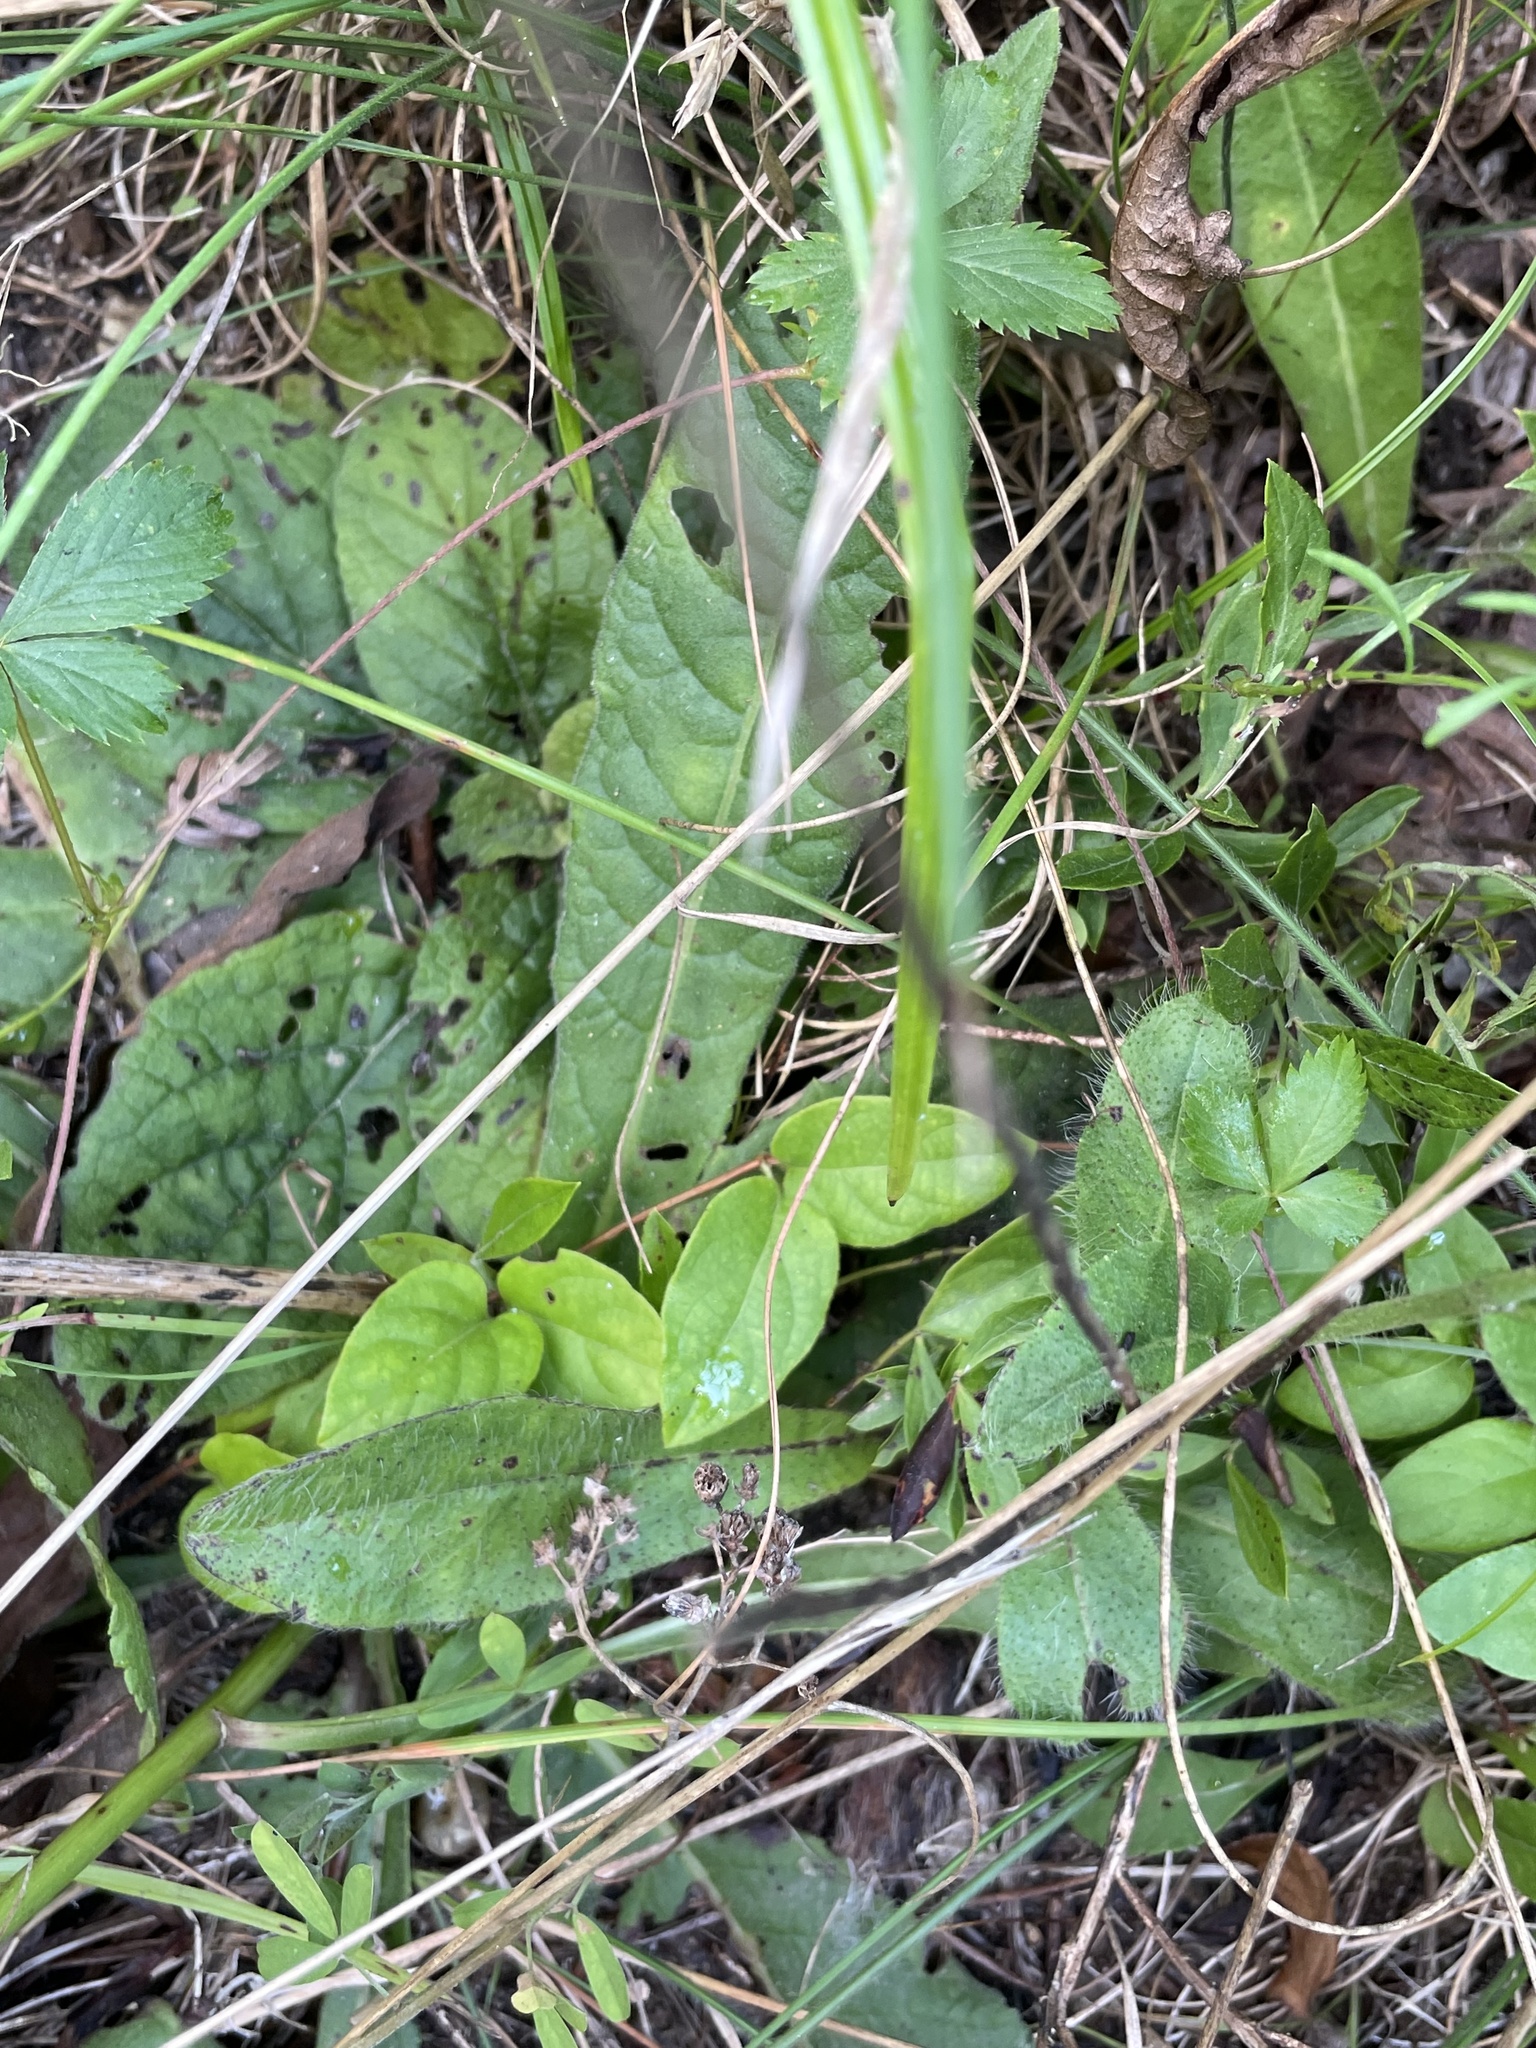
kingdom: Plantae
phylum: Tracheophyta
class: Magnoliopsida
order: Asterales
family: Asteraceae
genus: Vernonia
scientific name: Vernonia acaulis
